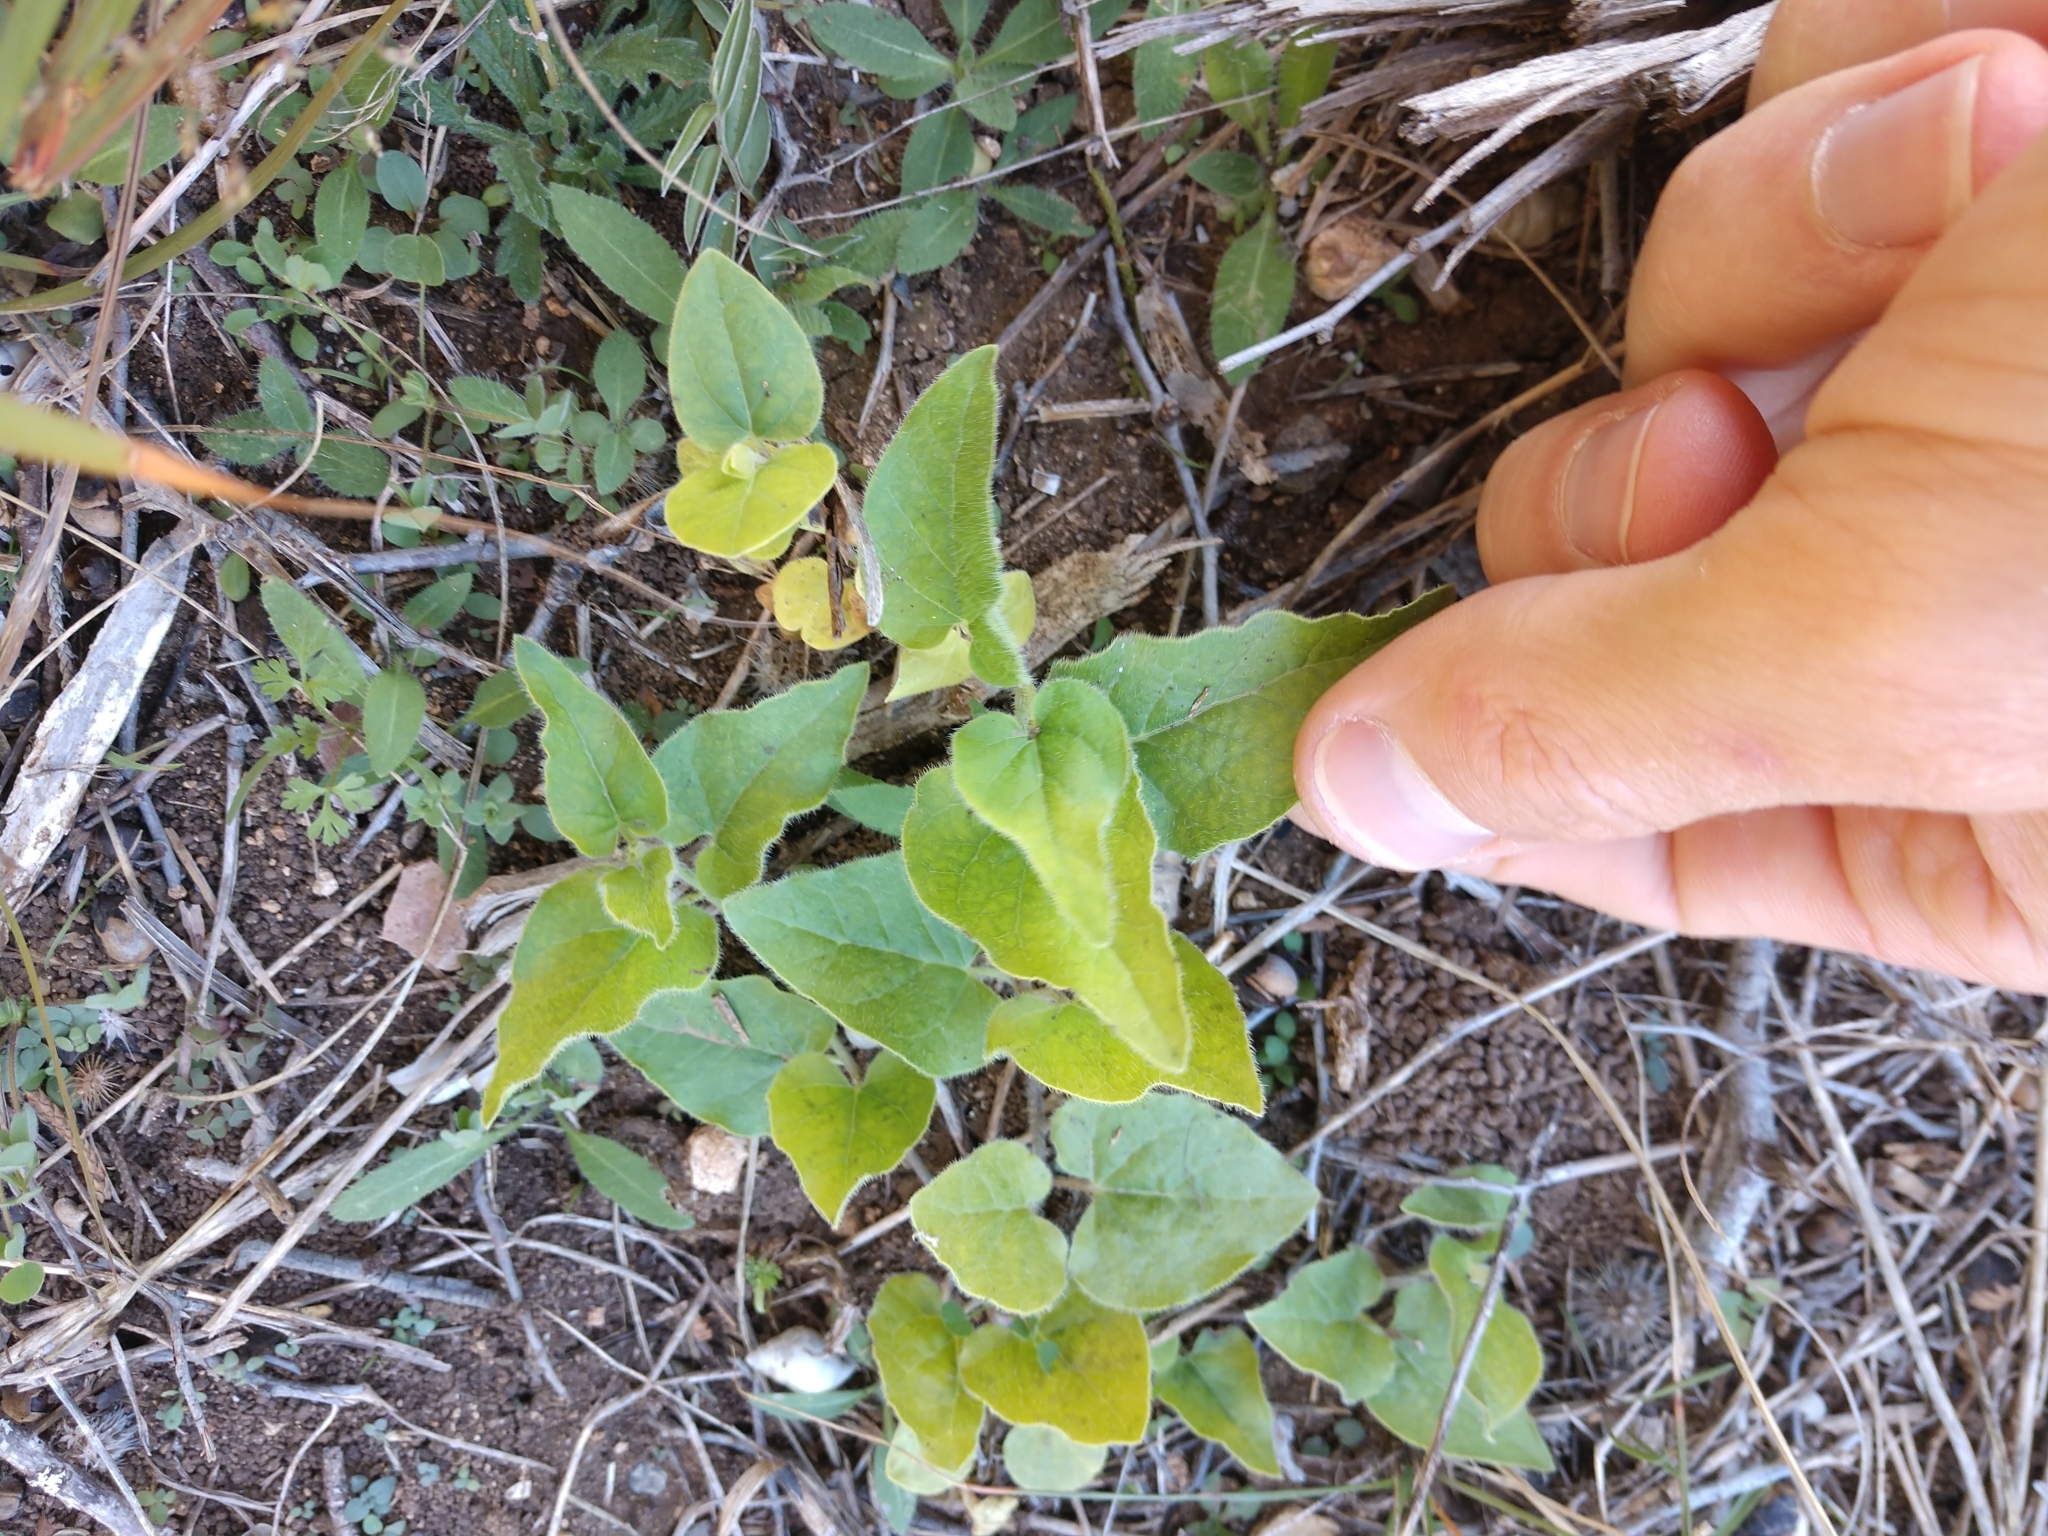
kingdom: Plantae
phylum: Tracheophyta
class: Magnoliopsida
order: Gentianales
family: Apocynaceae
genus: Chthamalia
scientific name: Chthamalia biflora
